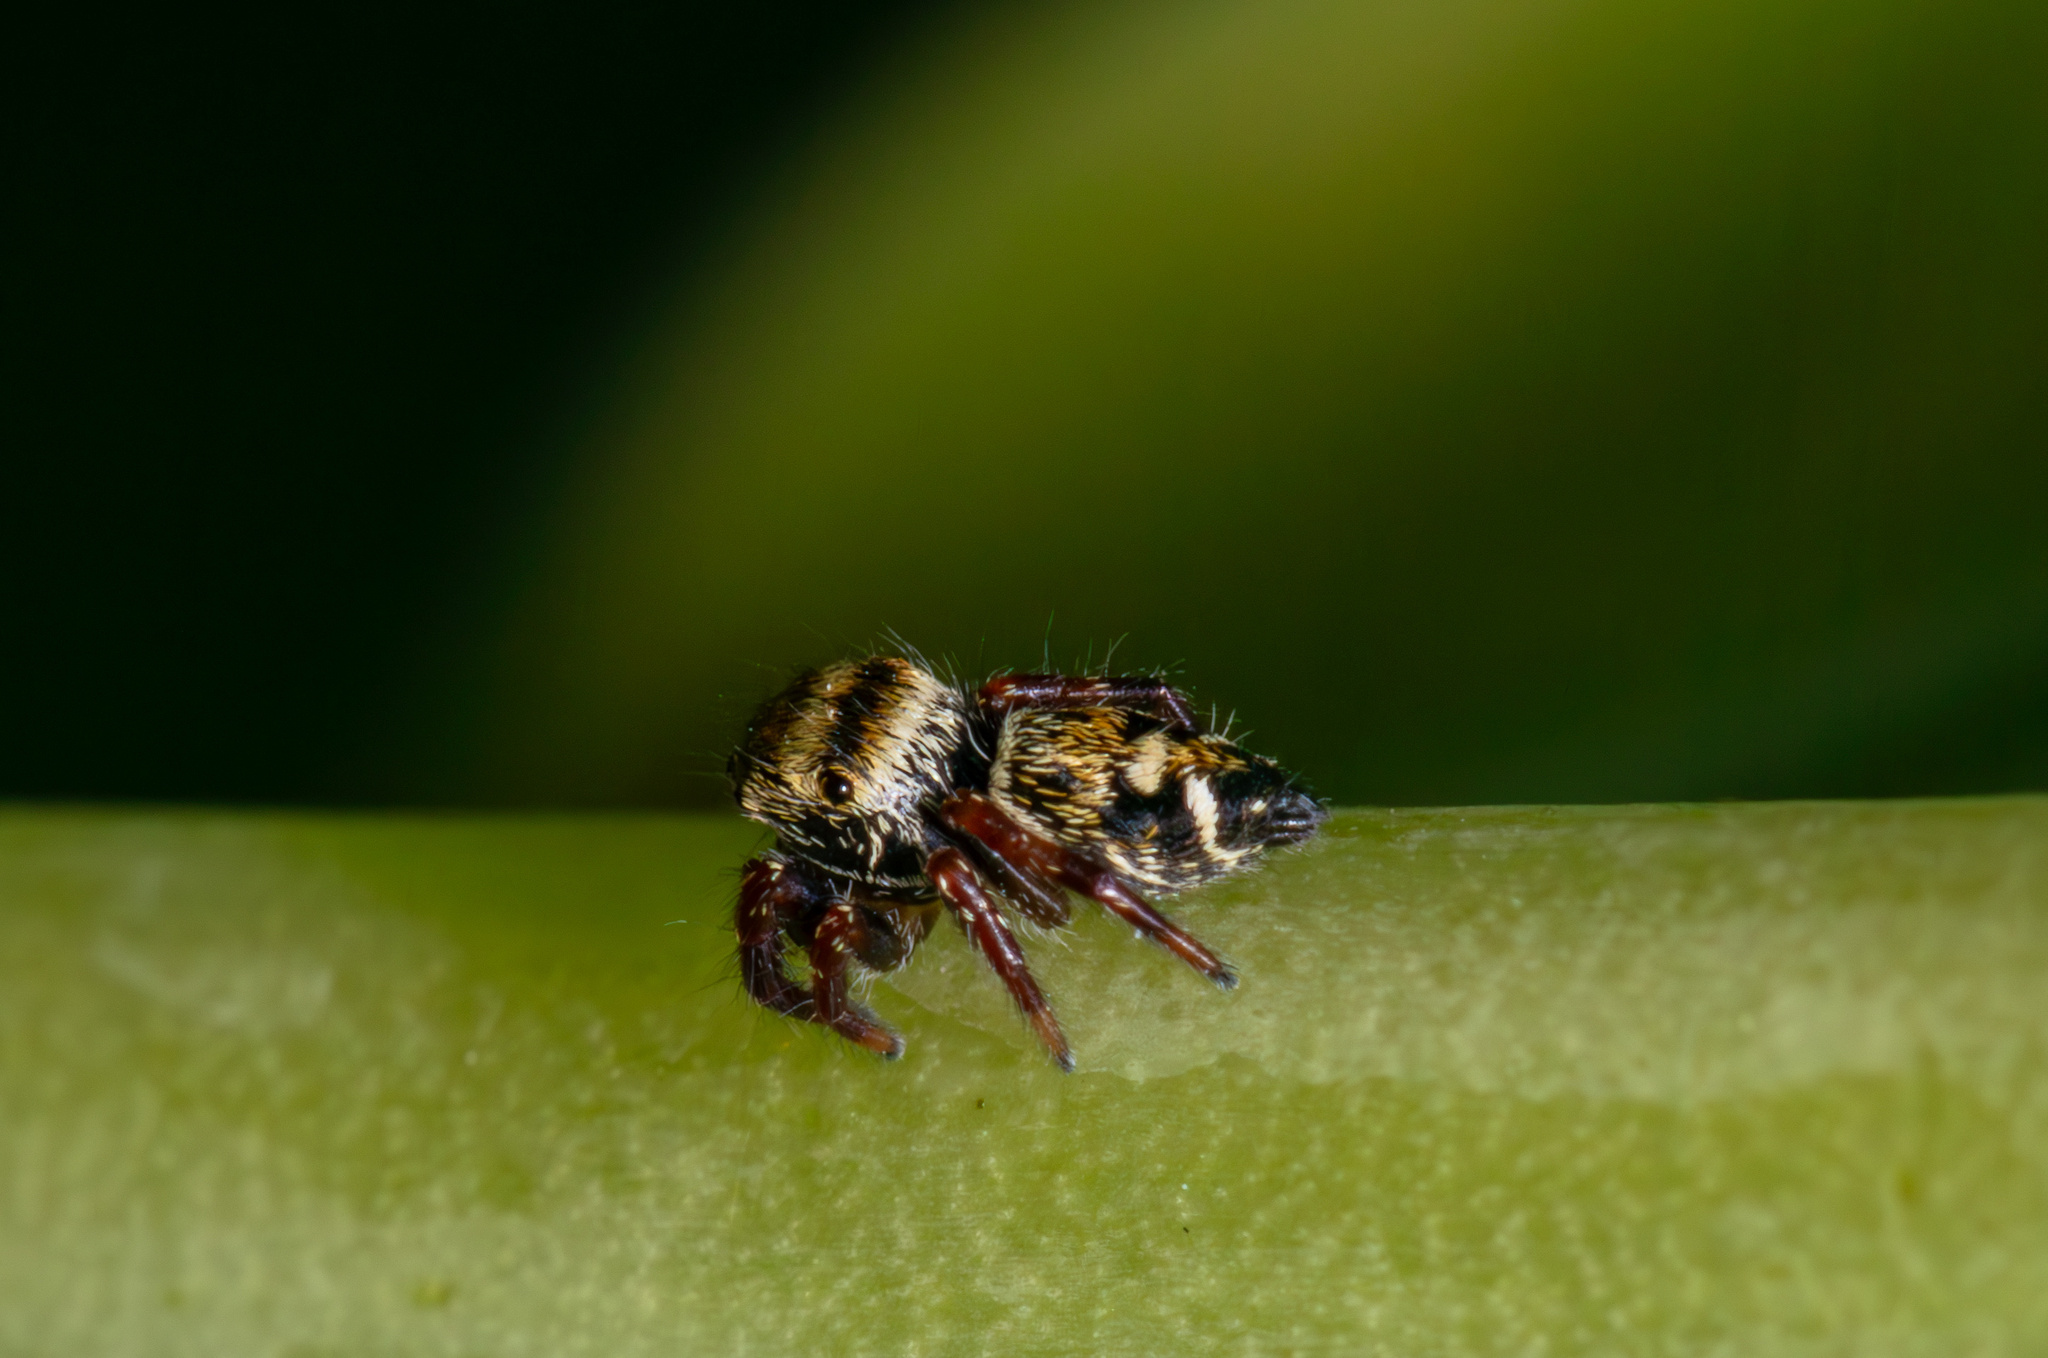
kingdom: Animalia
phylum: Arthropoda
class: Arachnida
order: Araneae
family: Salticidae
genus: Phidippus
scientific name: Phidippus audax
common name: Bold jumper
